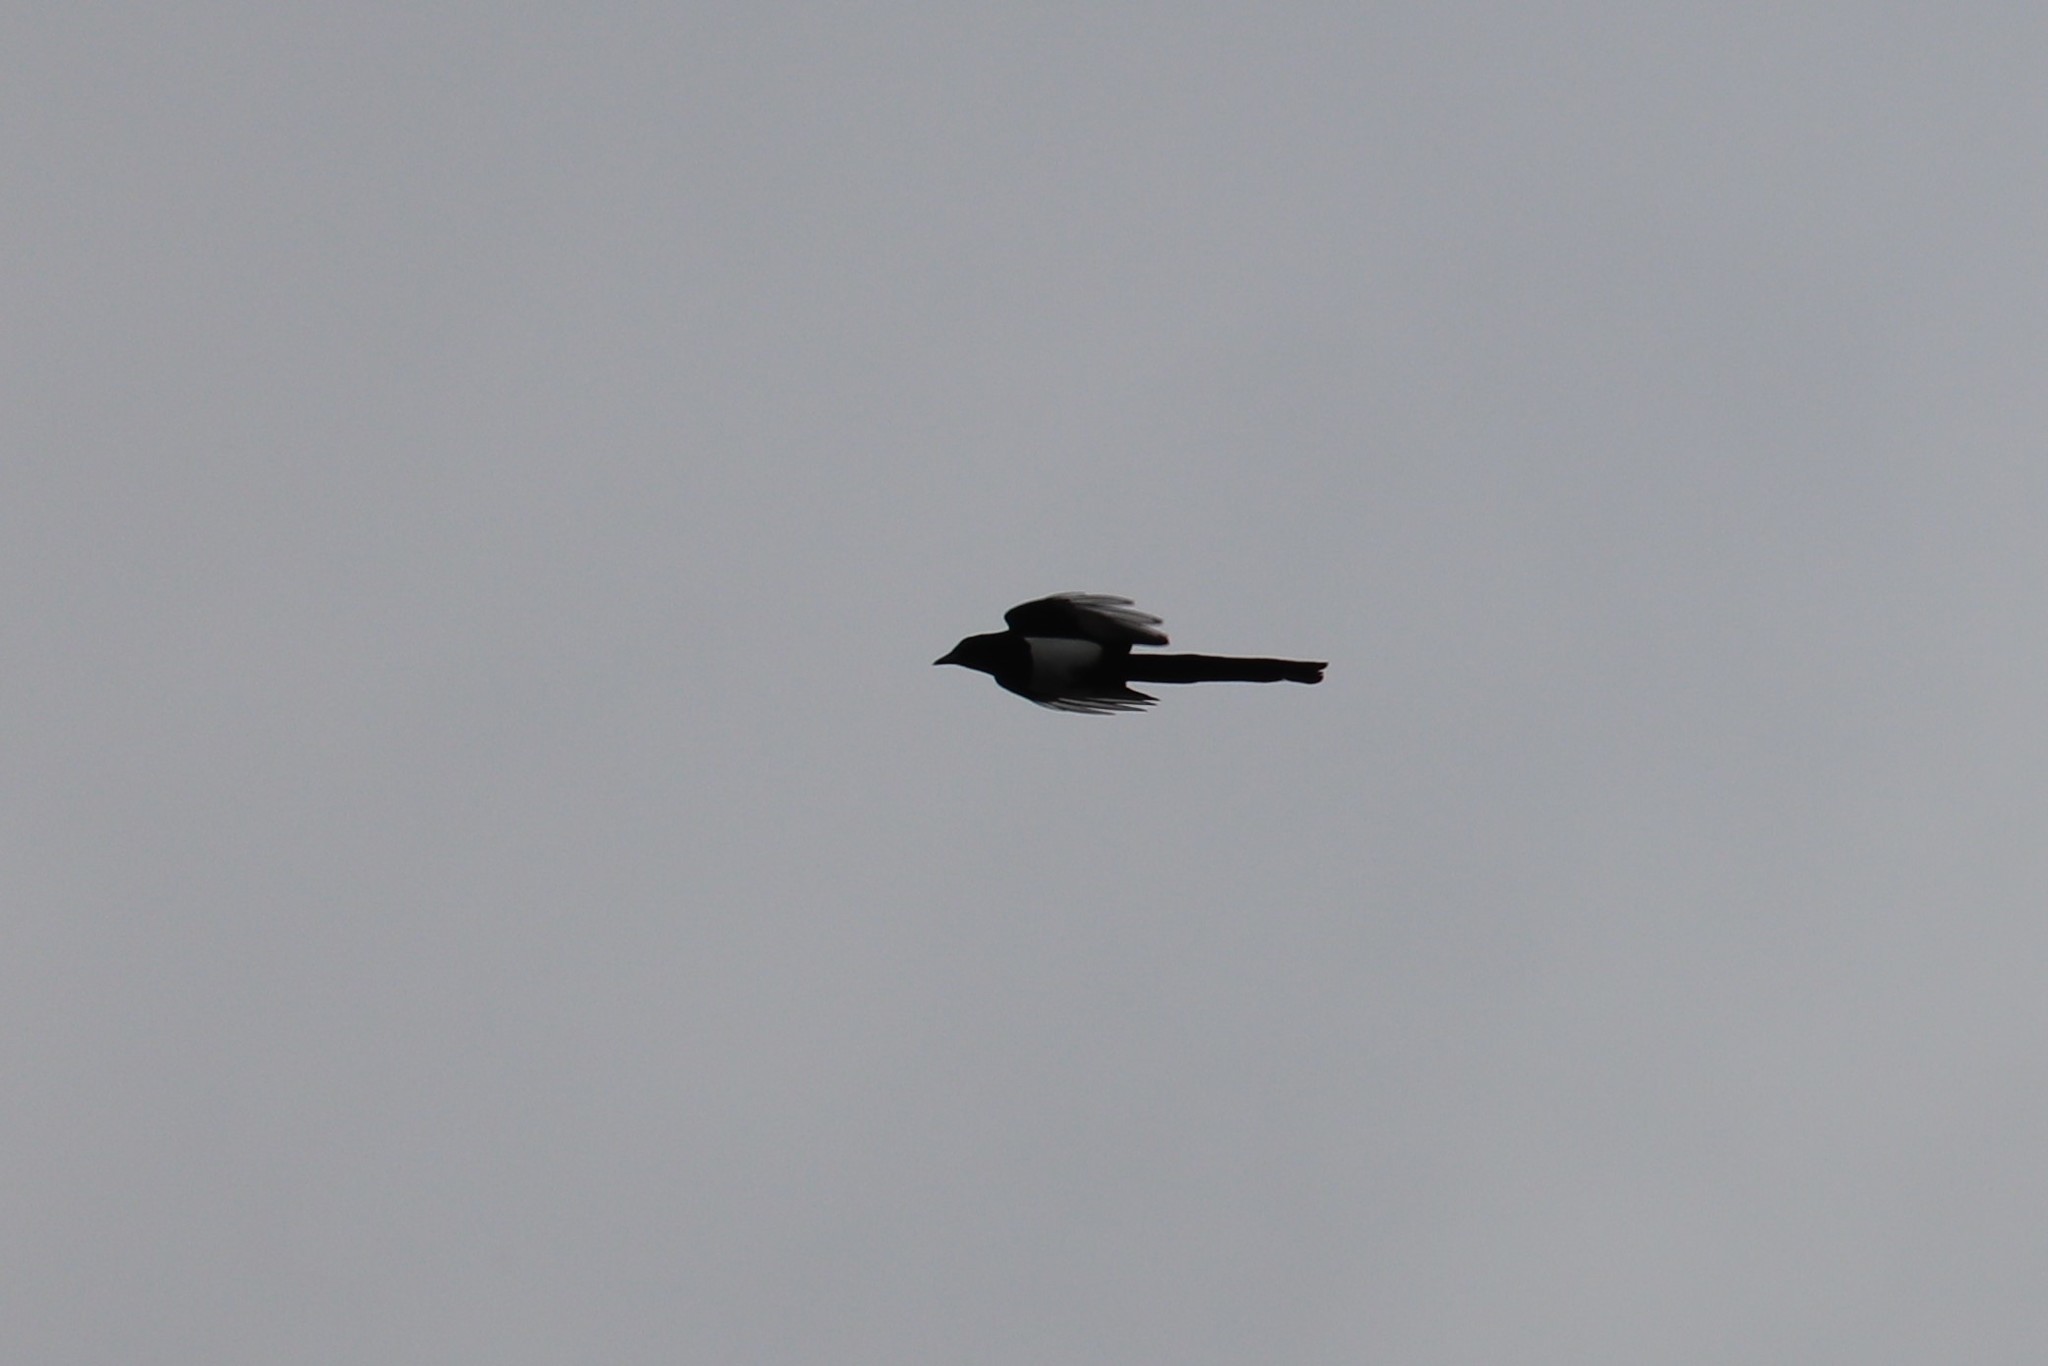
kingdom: Animalia
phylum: Chordata
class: Aves
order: Passeriformes
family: Corvidae
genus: Pica
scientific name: Pica hudsonia
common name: Black-billed magpie
